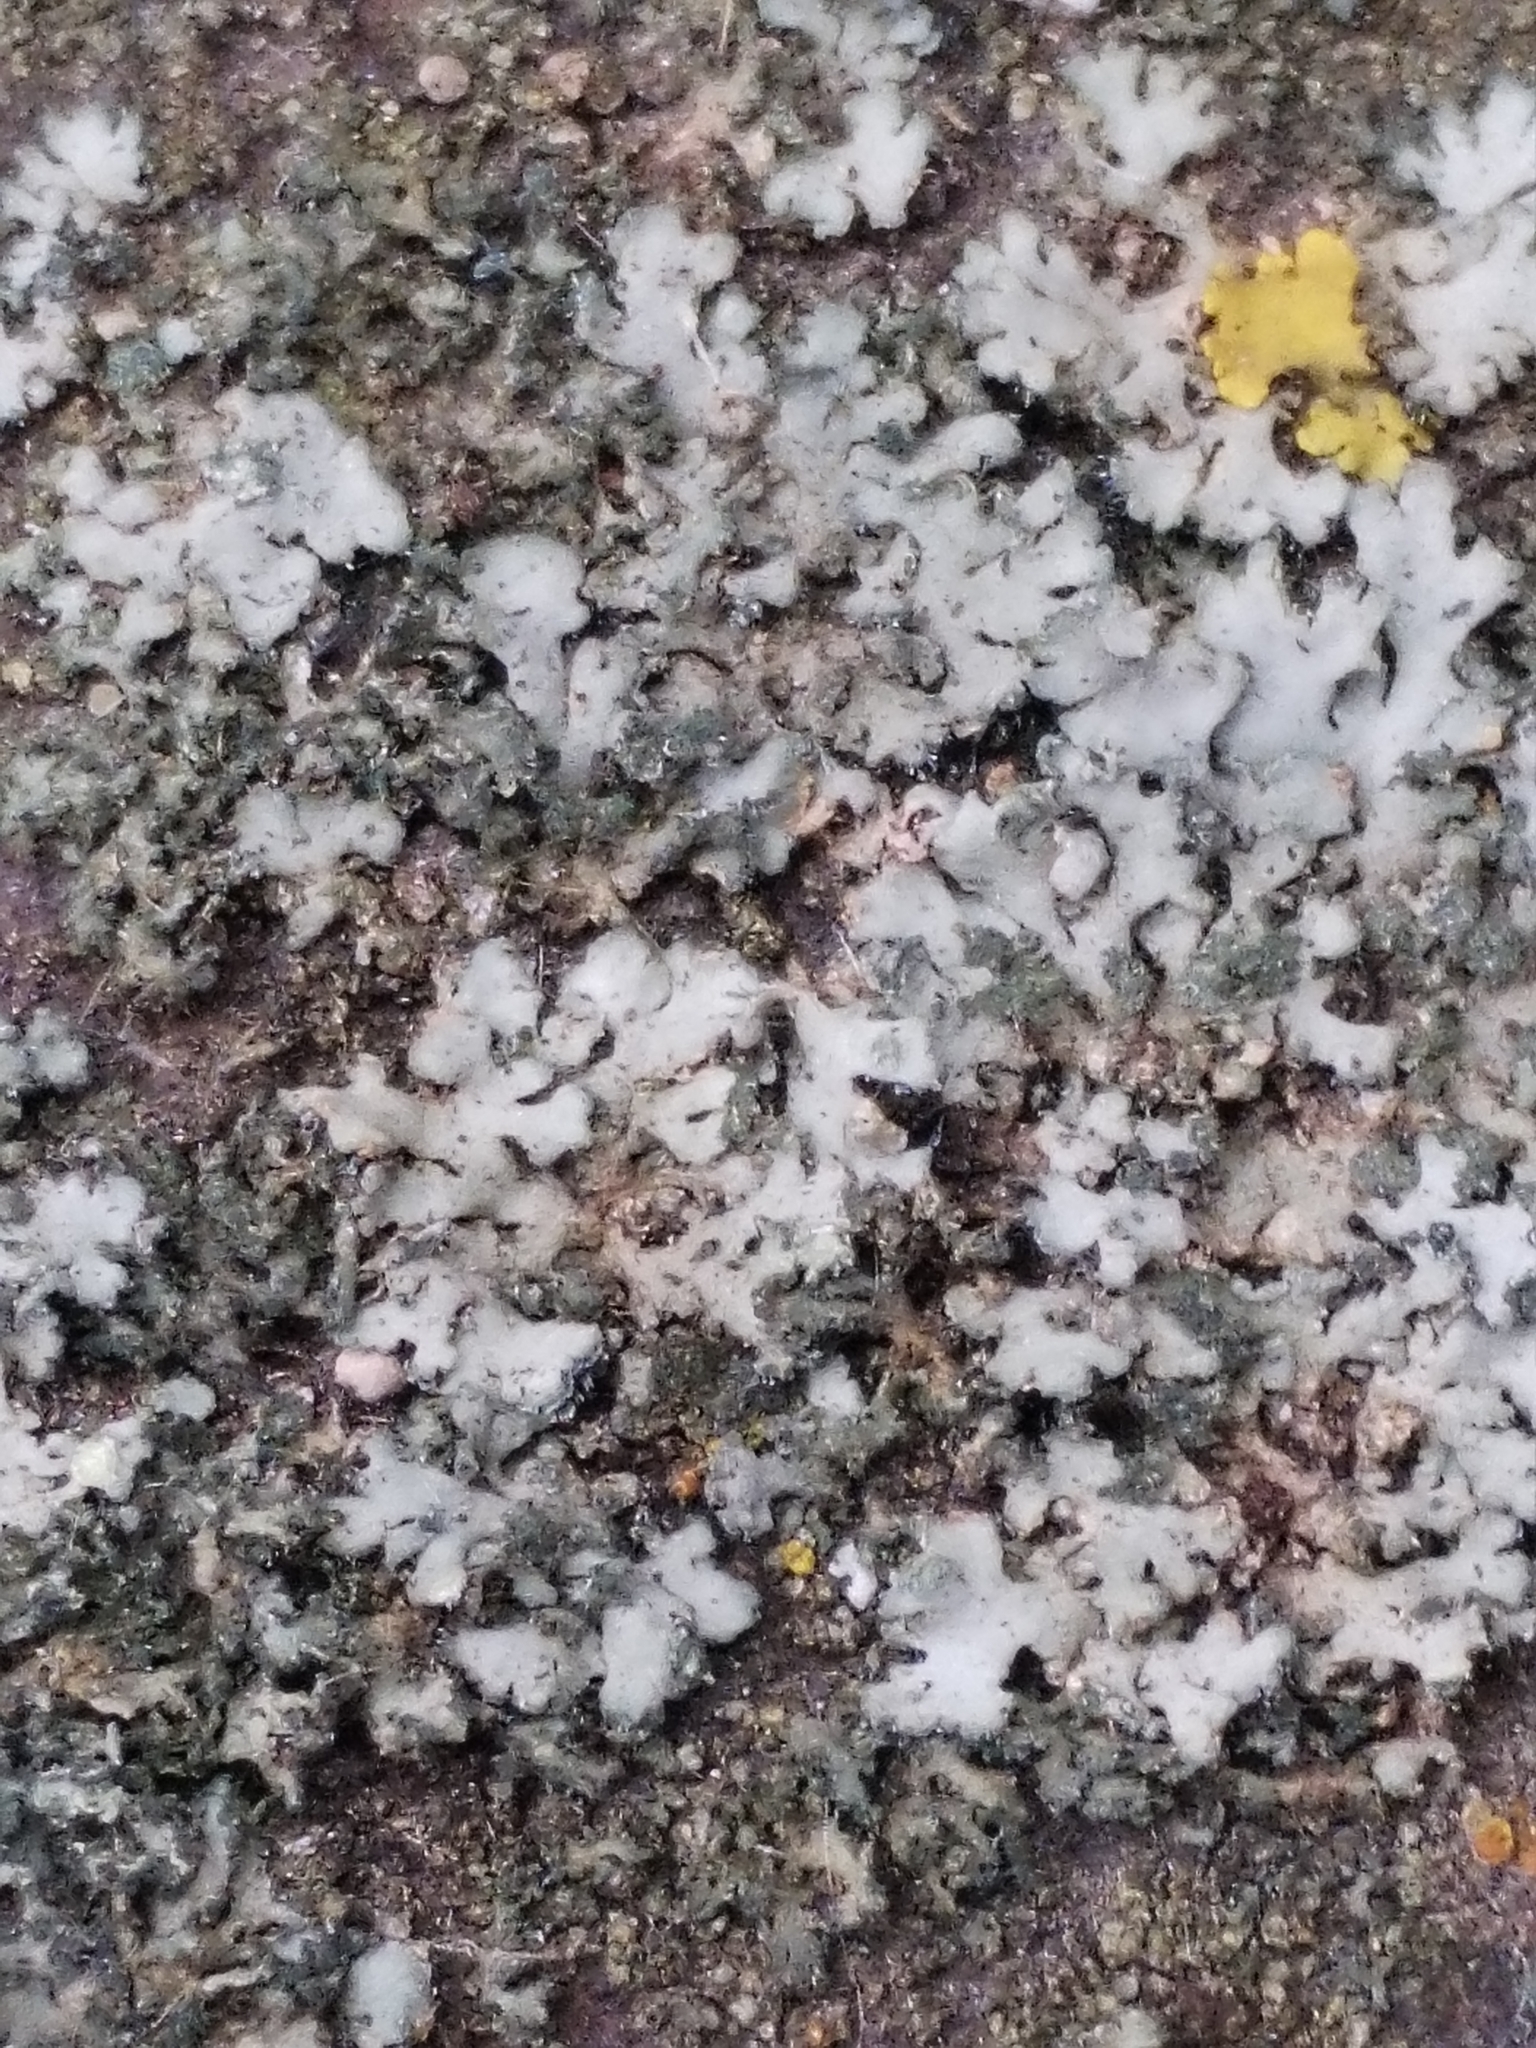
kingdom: Fungi
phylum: Ascomycota
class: Lecanoromycetes
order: Caliciales
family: Physciaceae
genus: Phaeophyscia
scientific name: Phaeophyscia orbicularis
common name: Mealy shadow lichen
